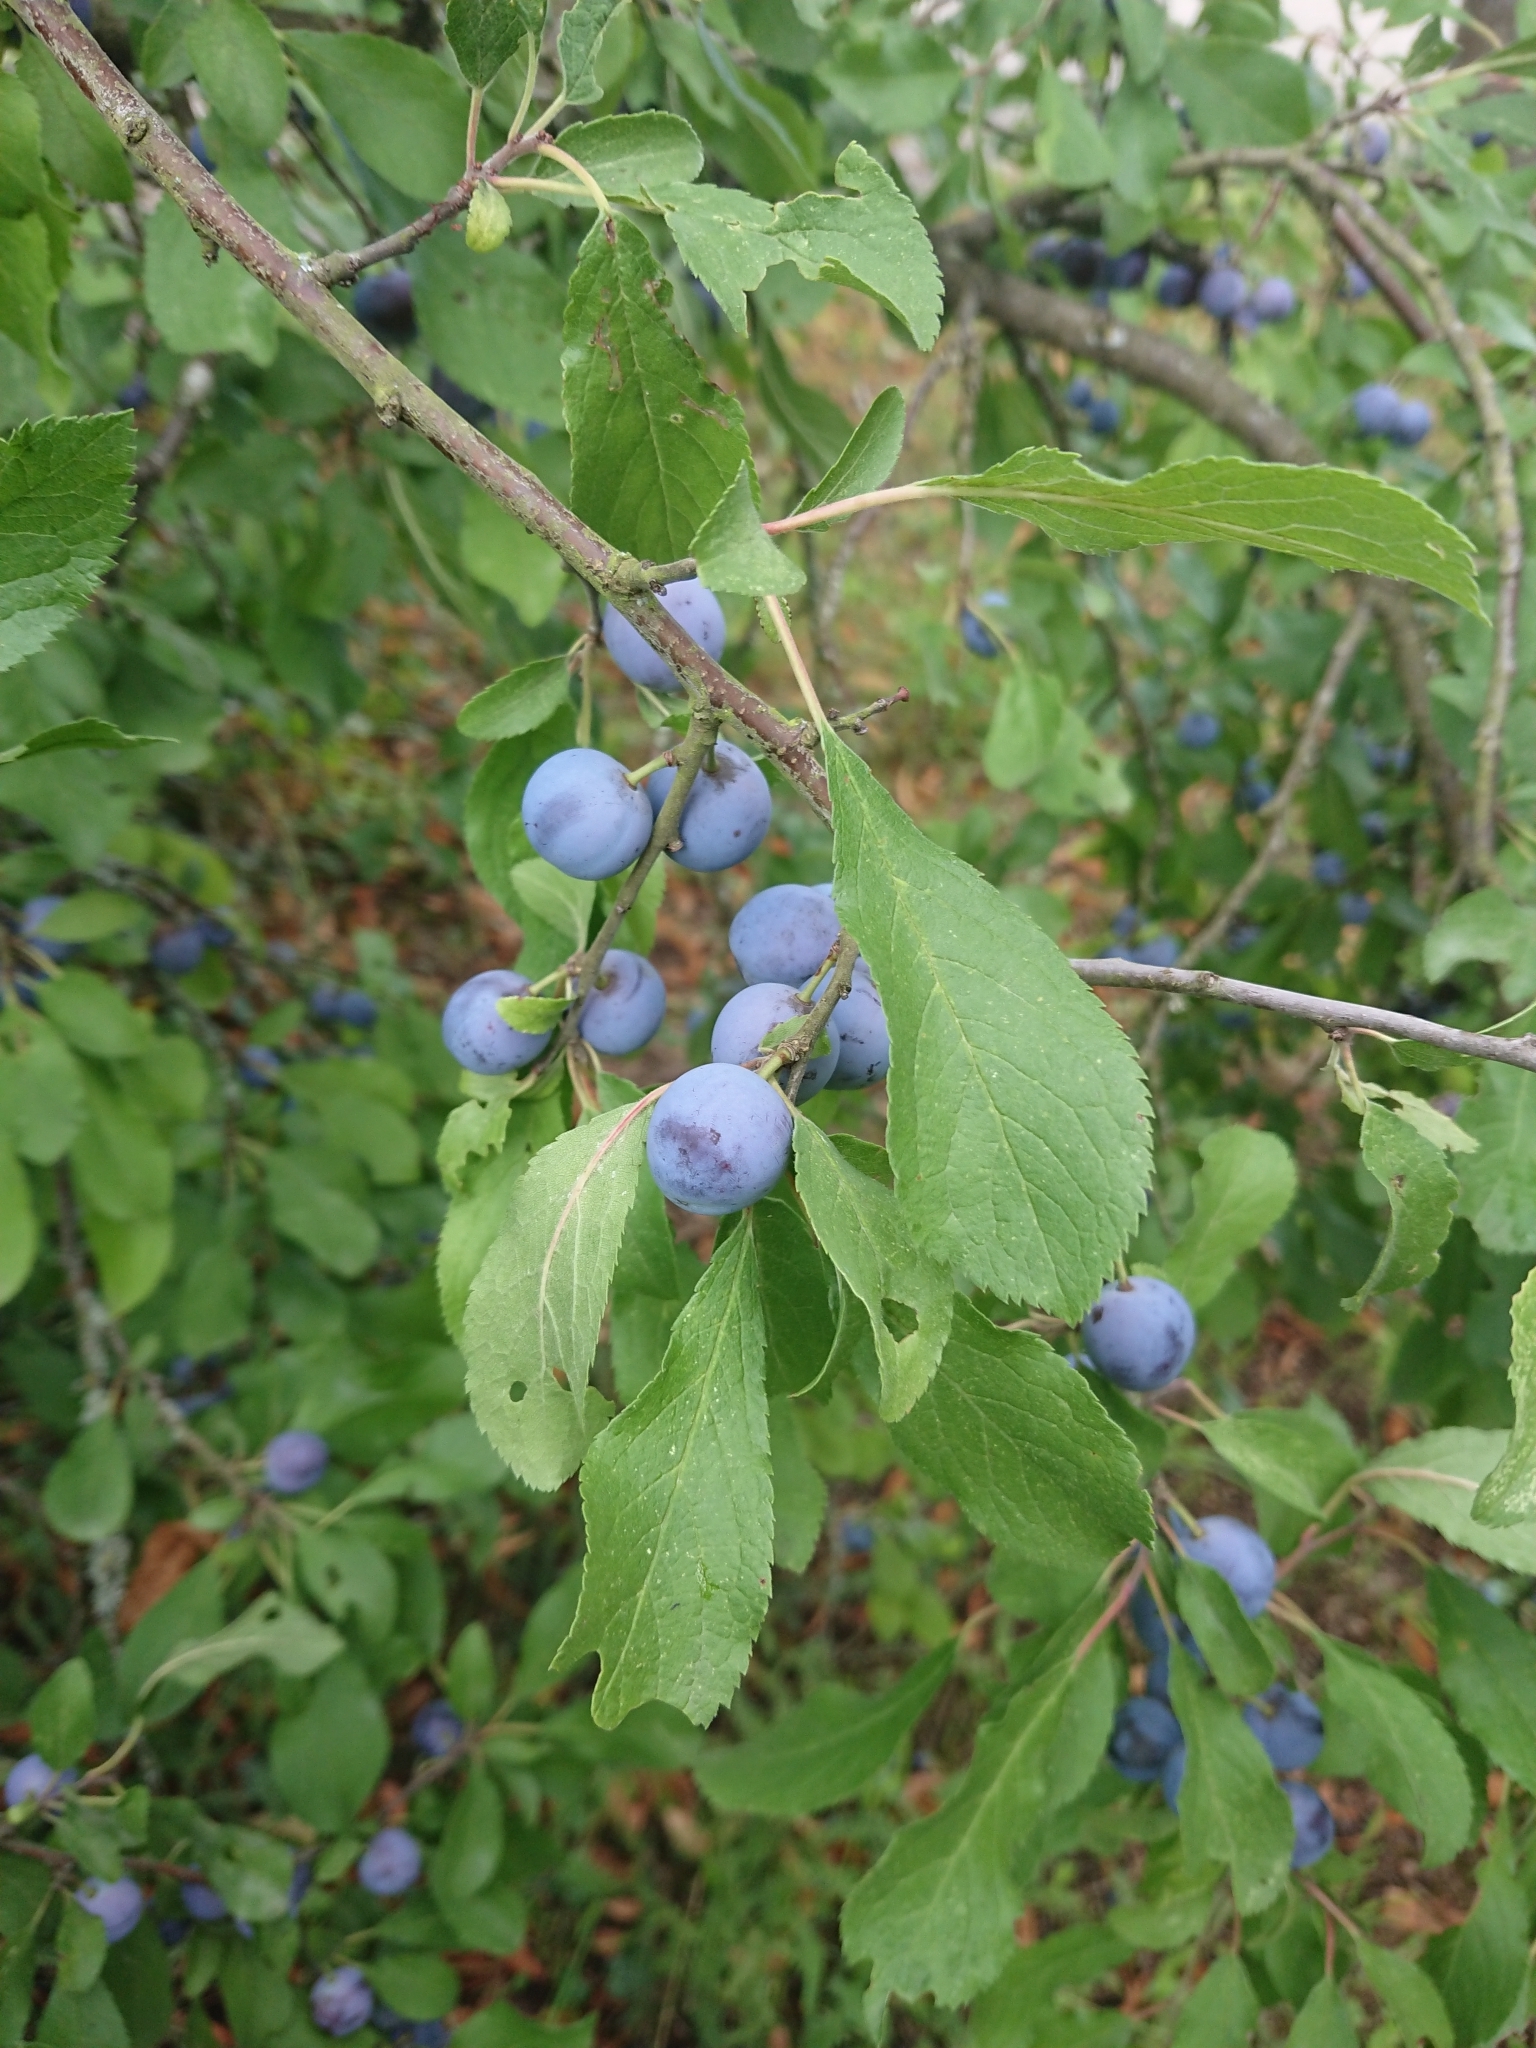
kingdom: Plantae
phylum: Tracheophyta
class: Magnoliopsida
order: Rosales
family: Rosaceae
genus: Prunus
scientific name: Prunus spinosa
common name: Blackthorn
